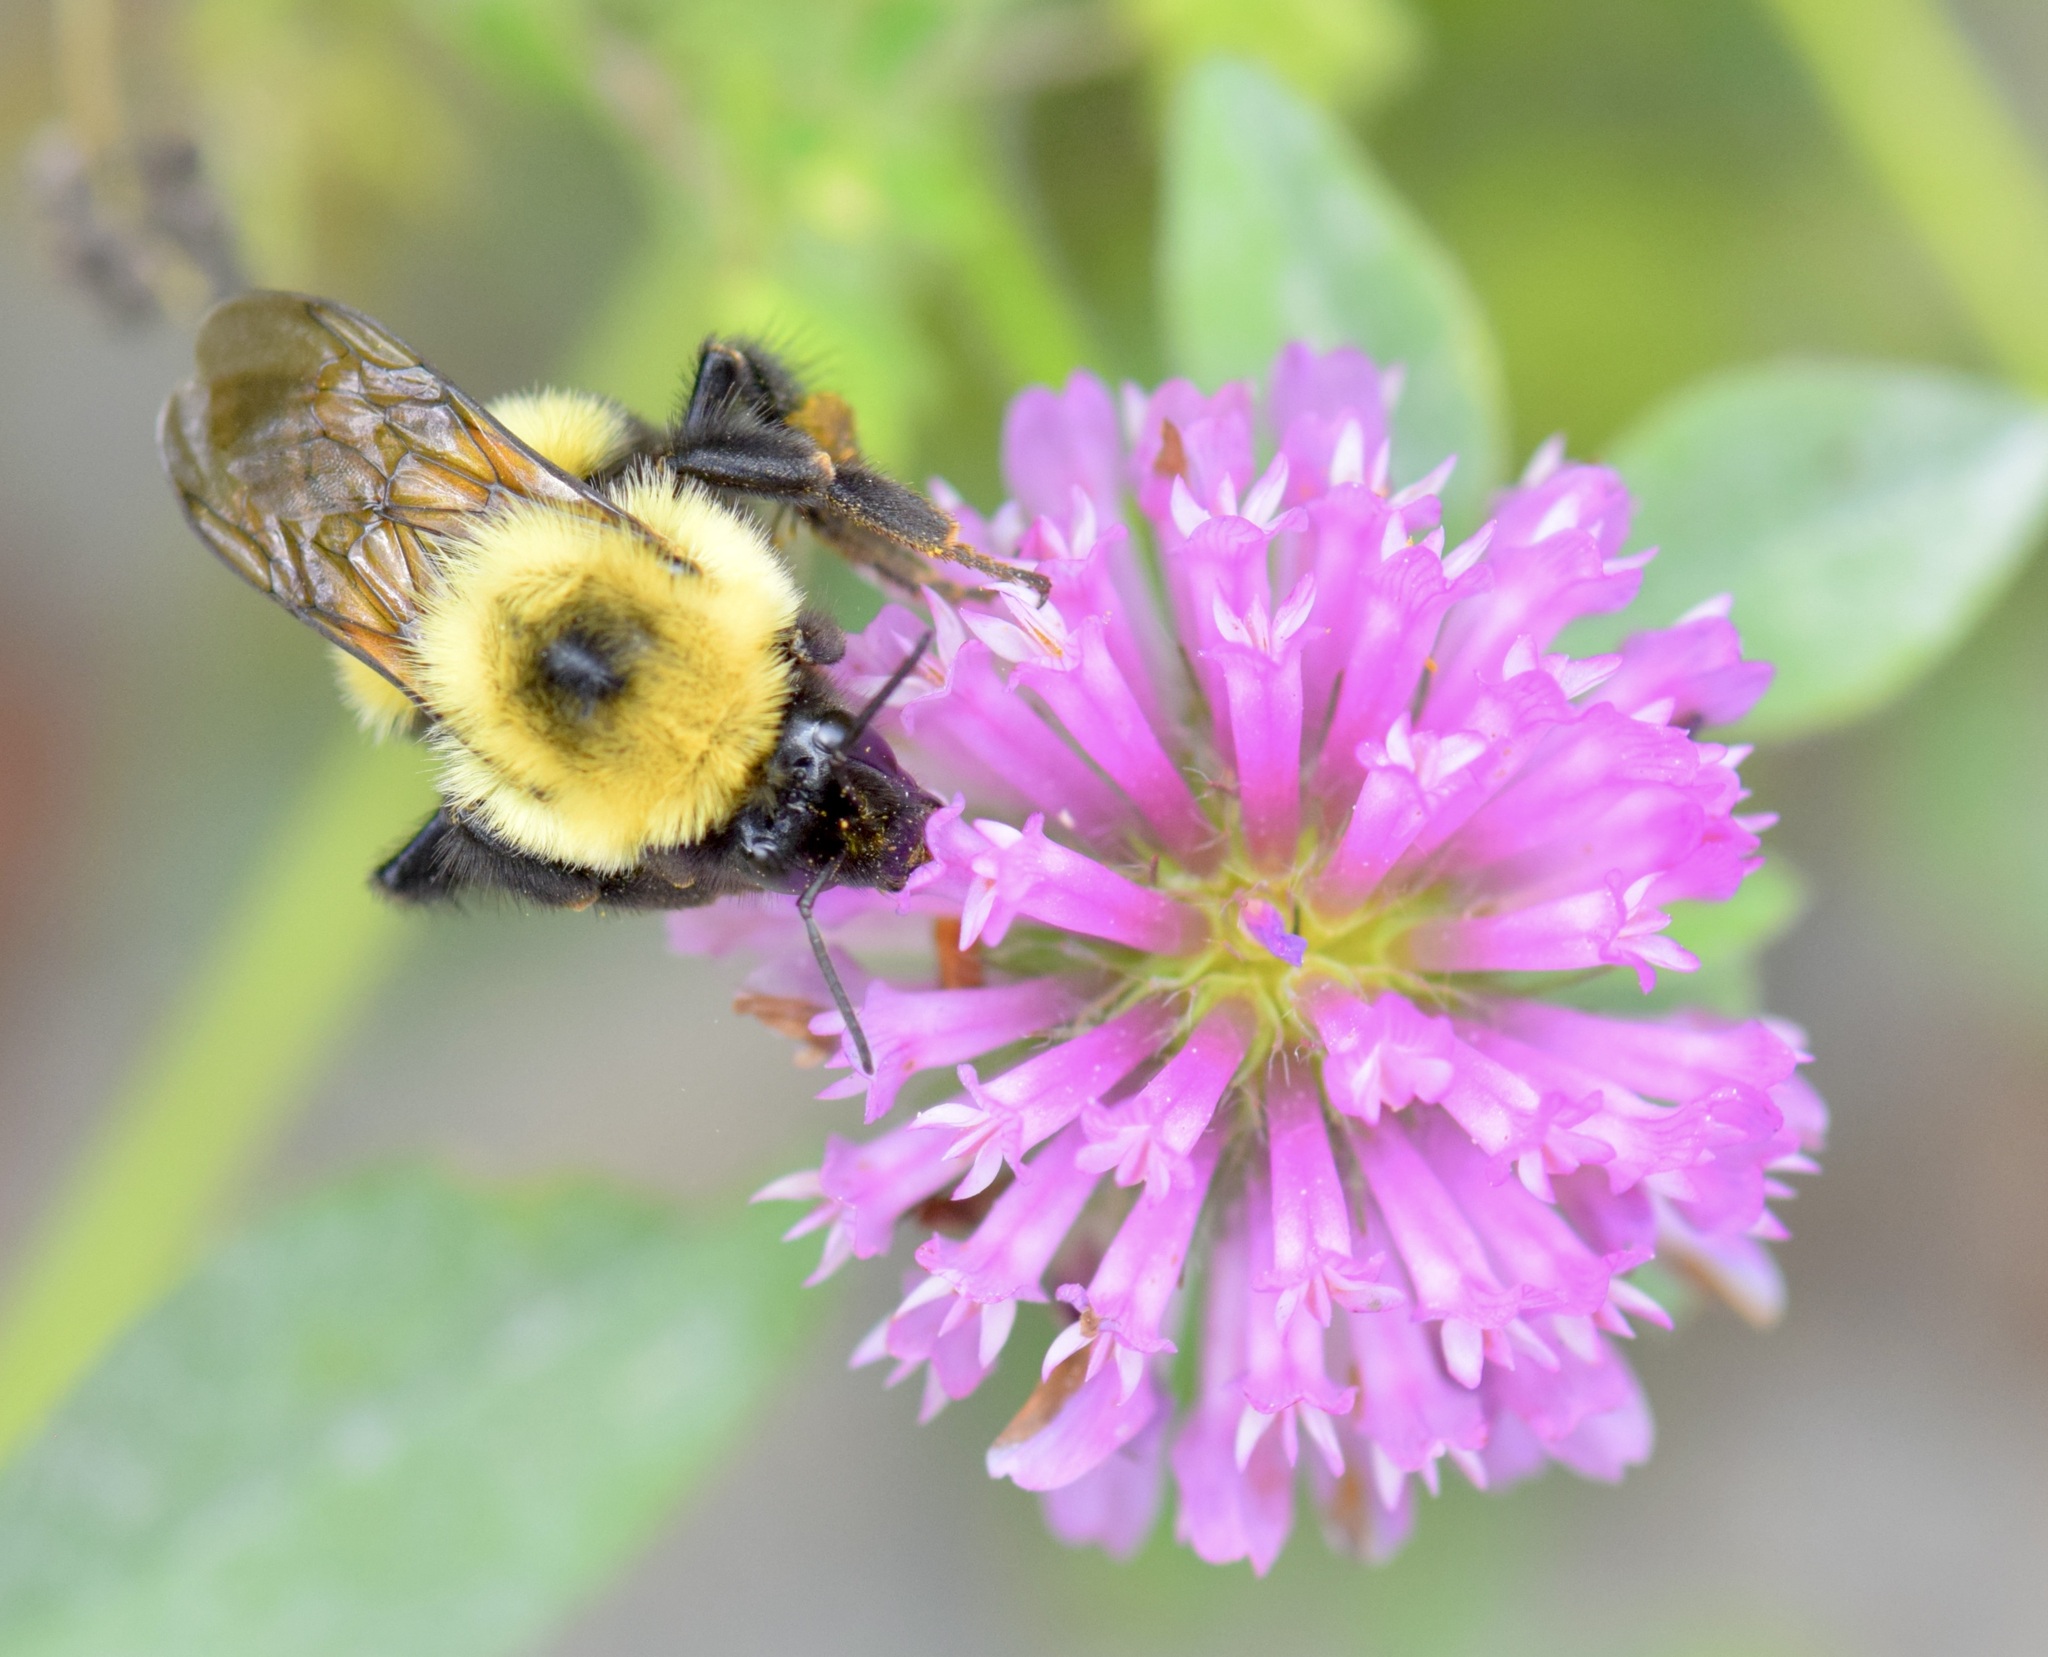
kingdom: Animalia
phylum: Arthropoda
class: Insecta
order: Hymenoptera
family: Apidae
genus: Bombus
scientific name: Bombus bimaculatus
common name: Two-spotted bumble bee
